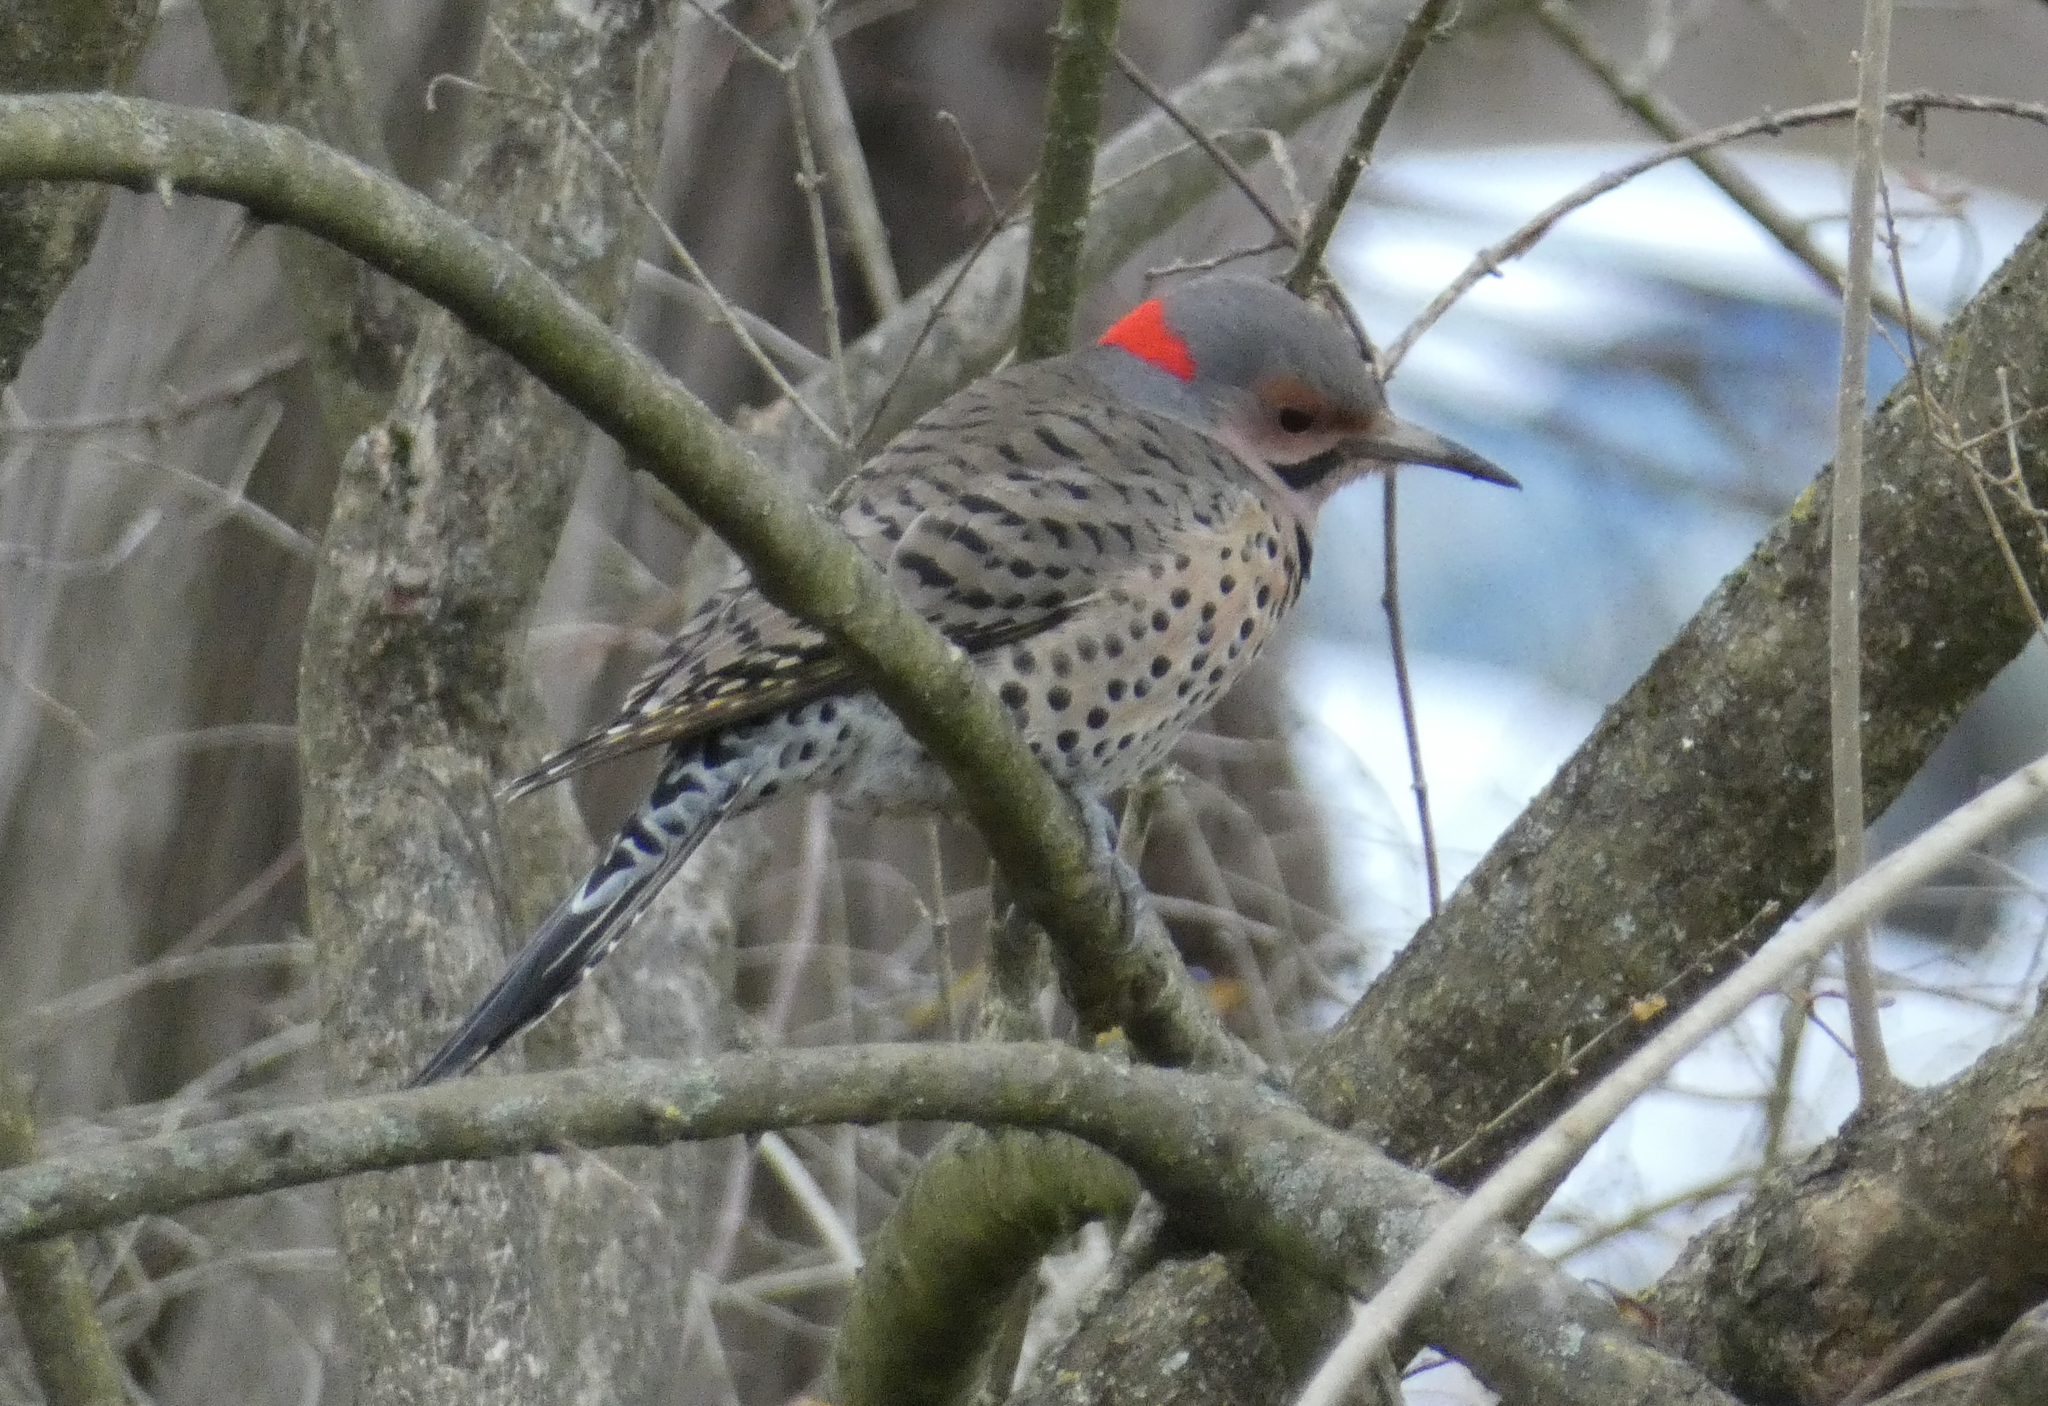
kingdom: Animalia
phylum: Chordata
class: Aves
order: Piciformes
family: Picidae
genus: Colaptes
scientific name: Colaptes auratus
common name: Northern flicker
